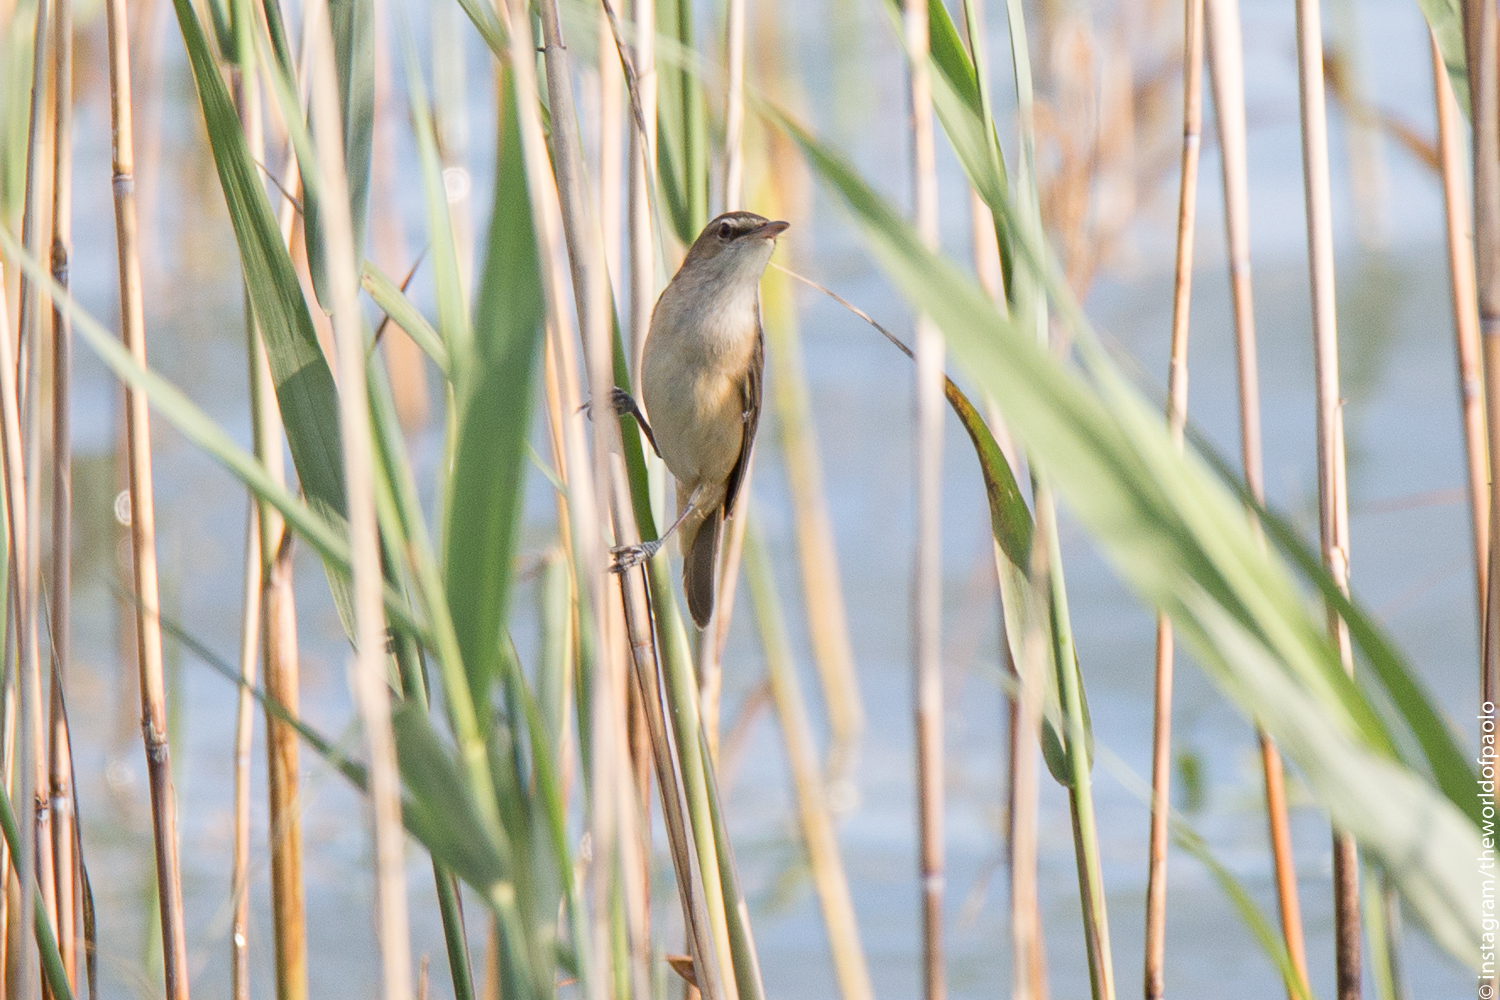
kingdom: Animalia
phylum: Chordata
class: Aves
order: Passeriformes
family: Acrocephalidae
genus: Acrocephalus
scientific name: Acrocephalus arundinaceus
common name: Great reed warbler
